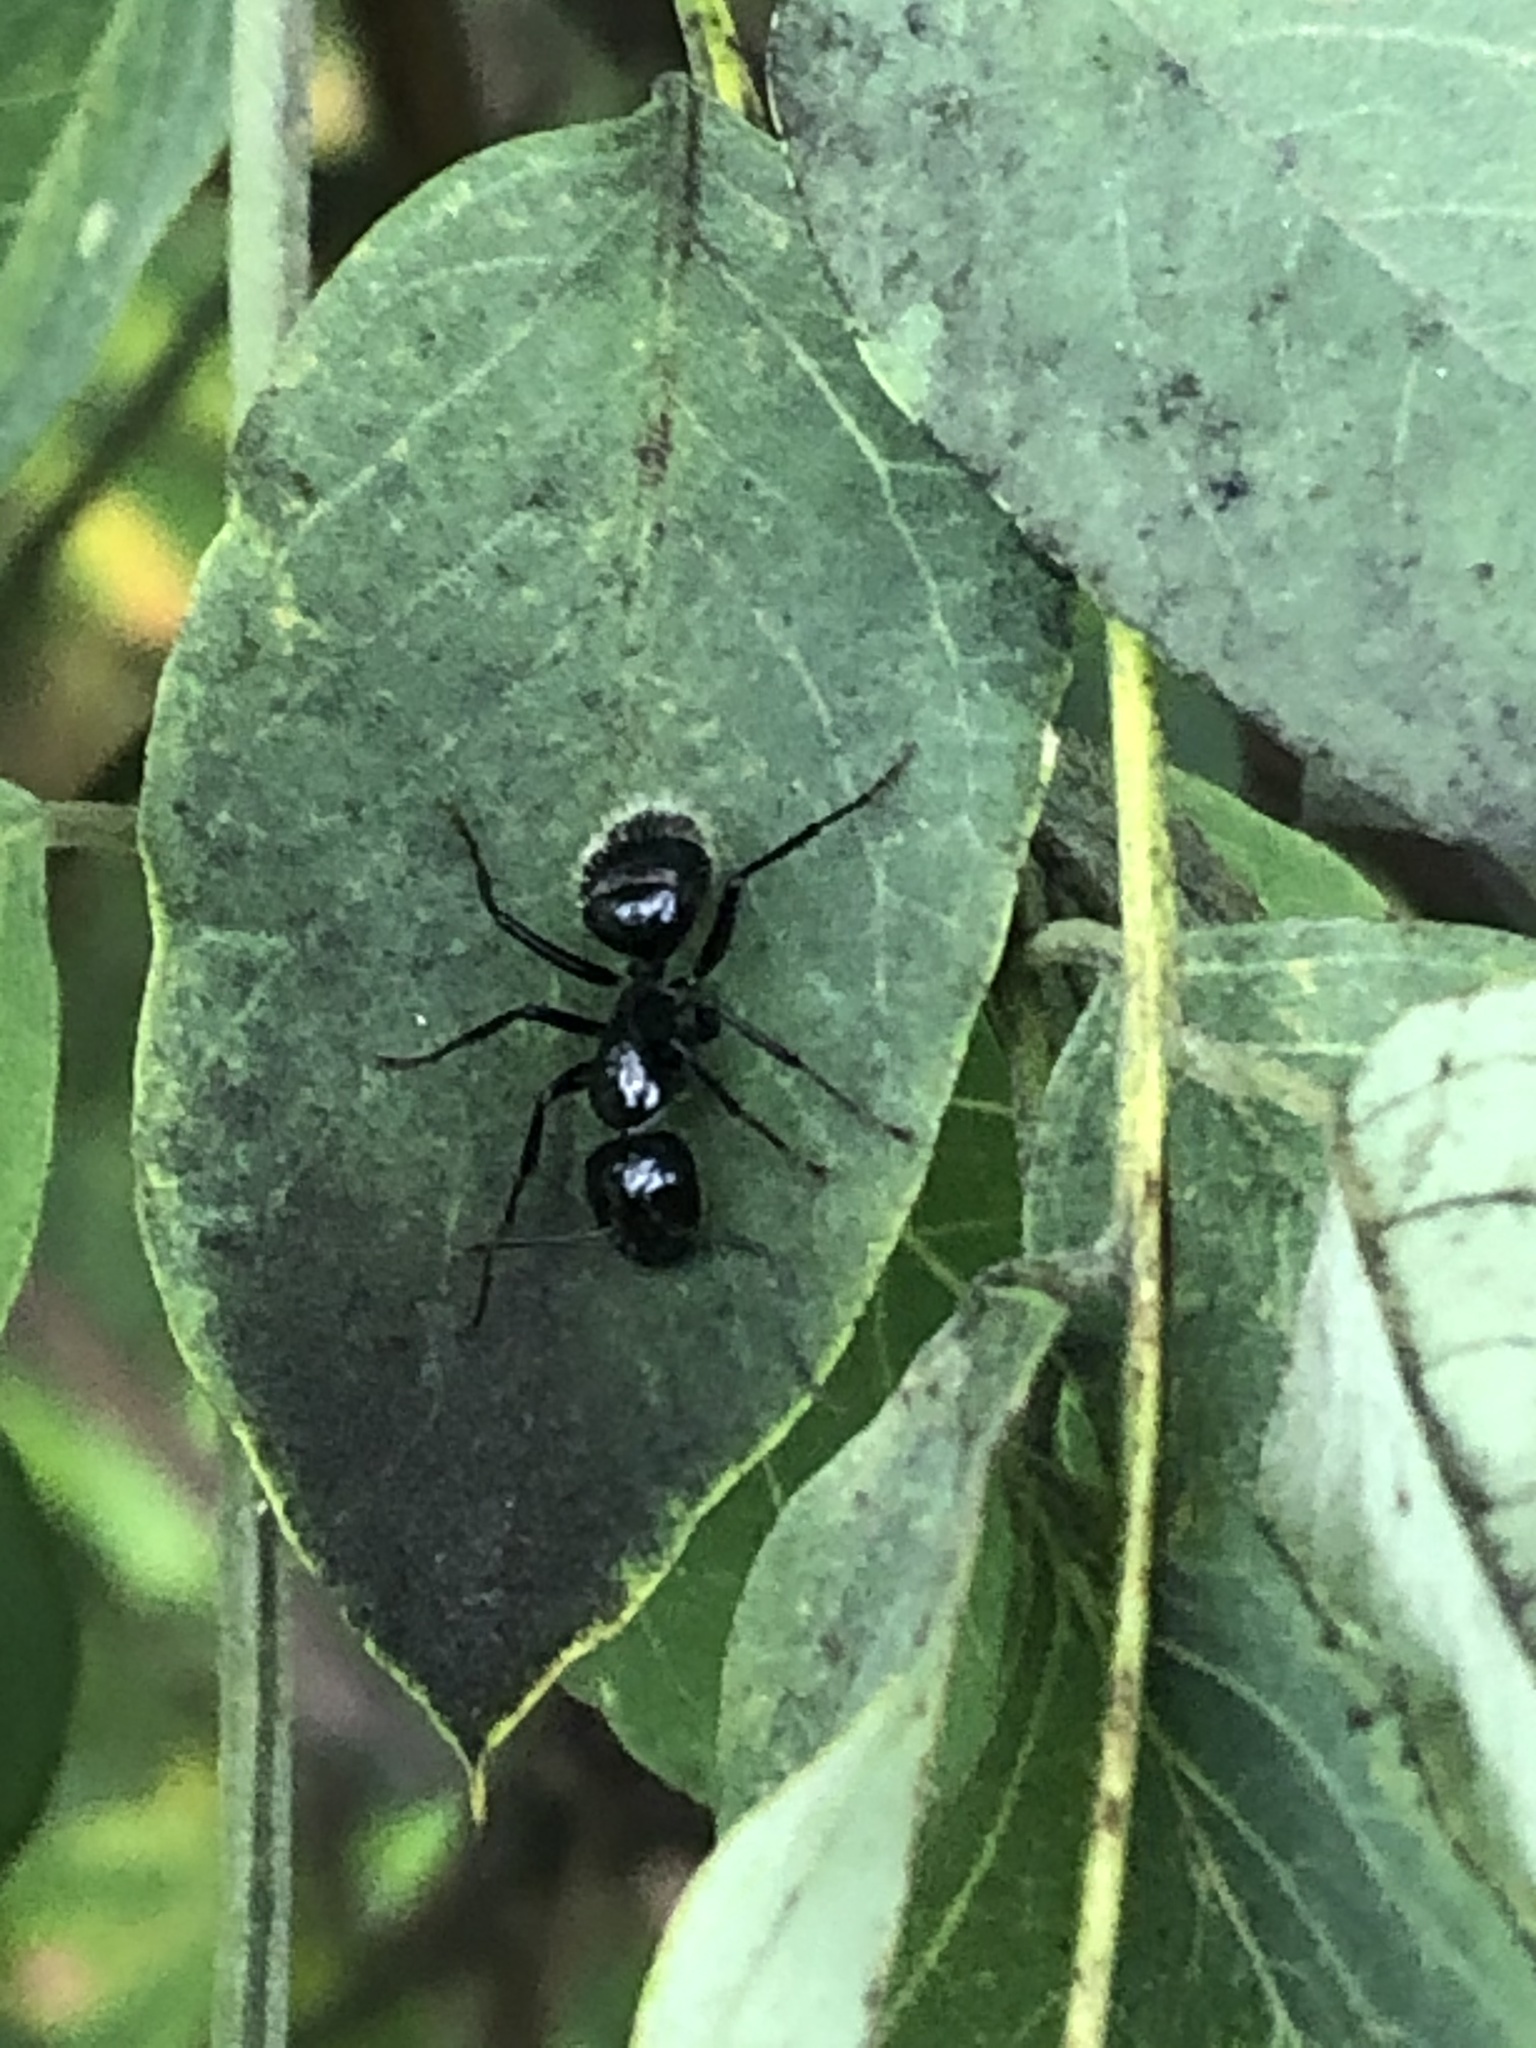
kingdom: Animalia
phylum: Arthropoda
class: Insecta
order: Hymenoptera
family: Formicidae
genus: Camponotus
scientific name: Camponotus
